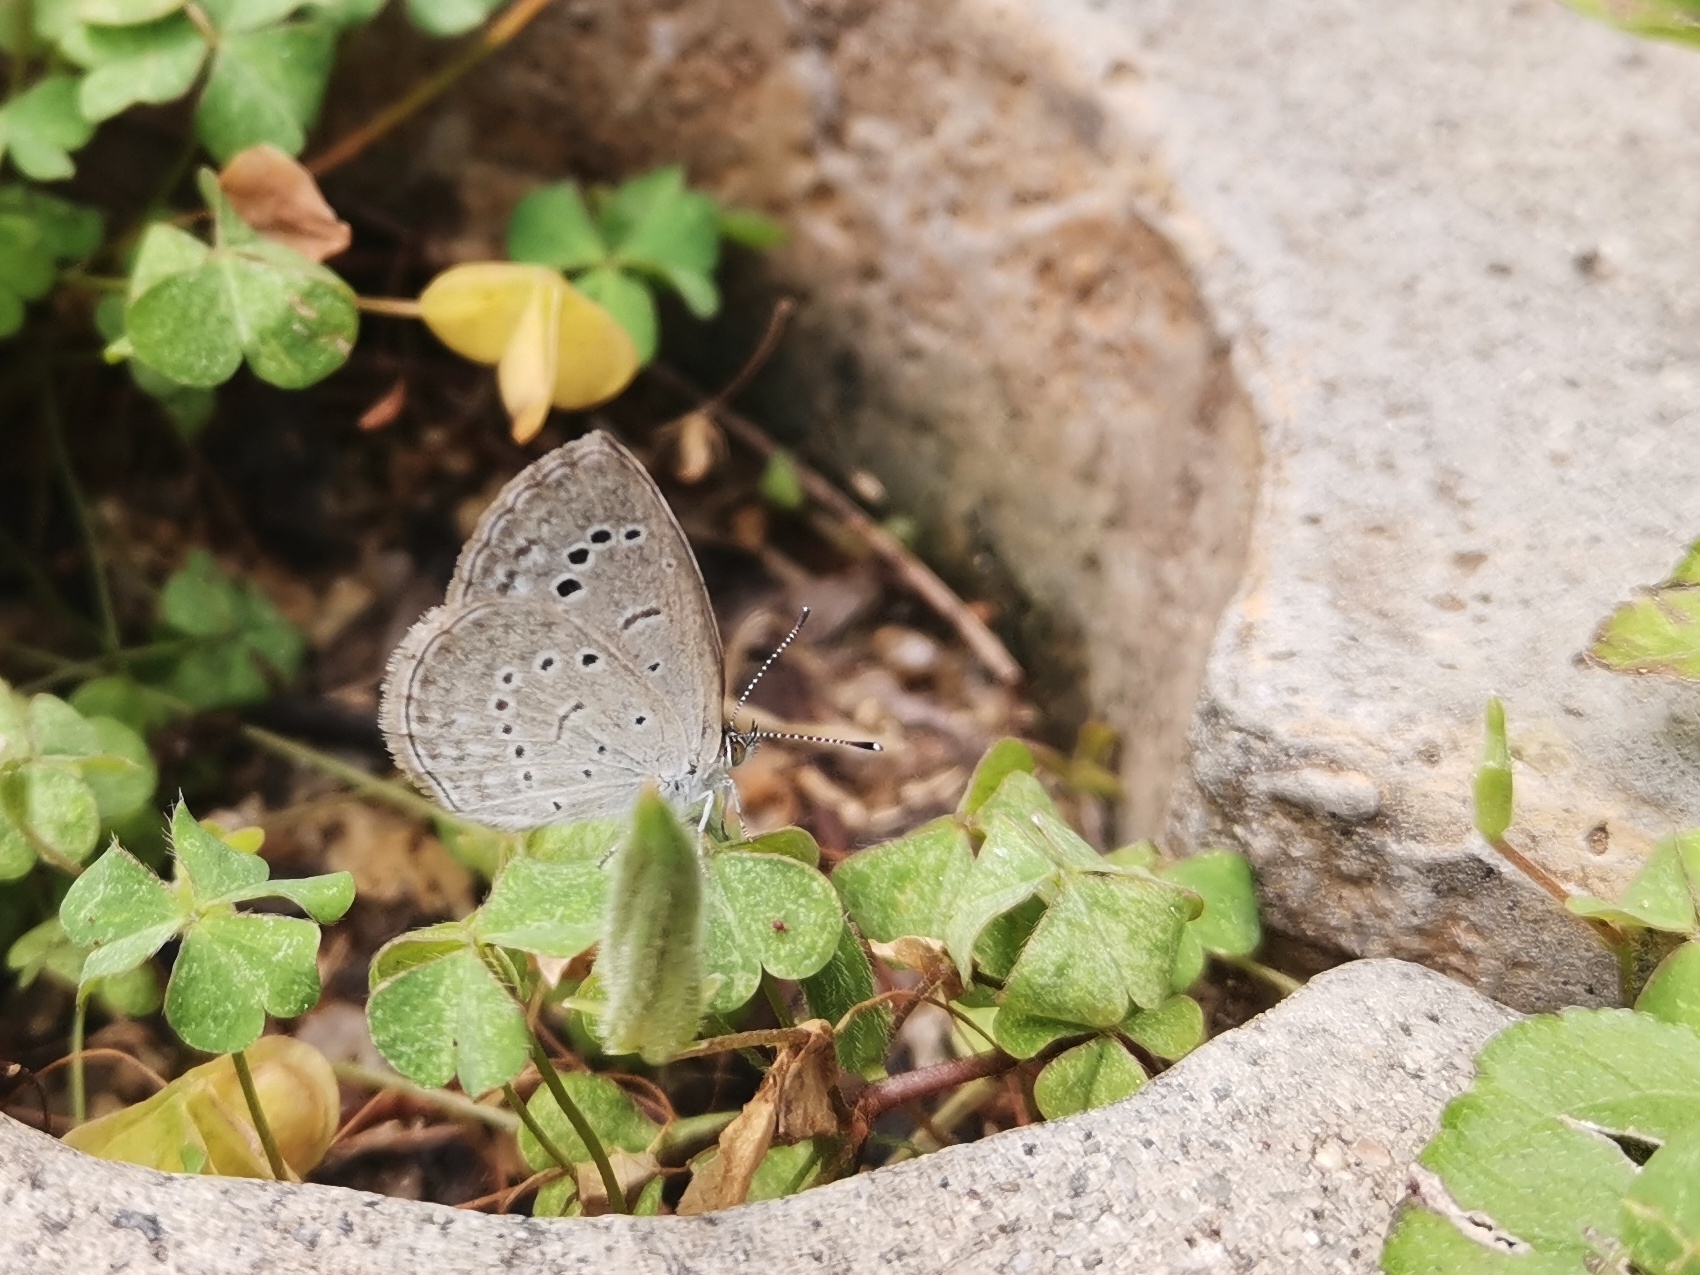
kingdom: Animalia
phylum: Arthropoda
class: Insecta
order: Lepidoptera
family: Lycaenidae
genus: Pseudozizeeria
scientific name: Pseudozizeeria maha
